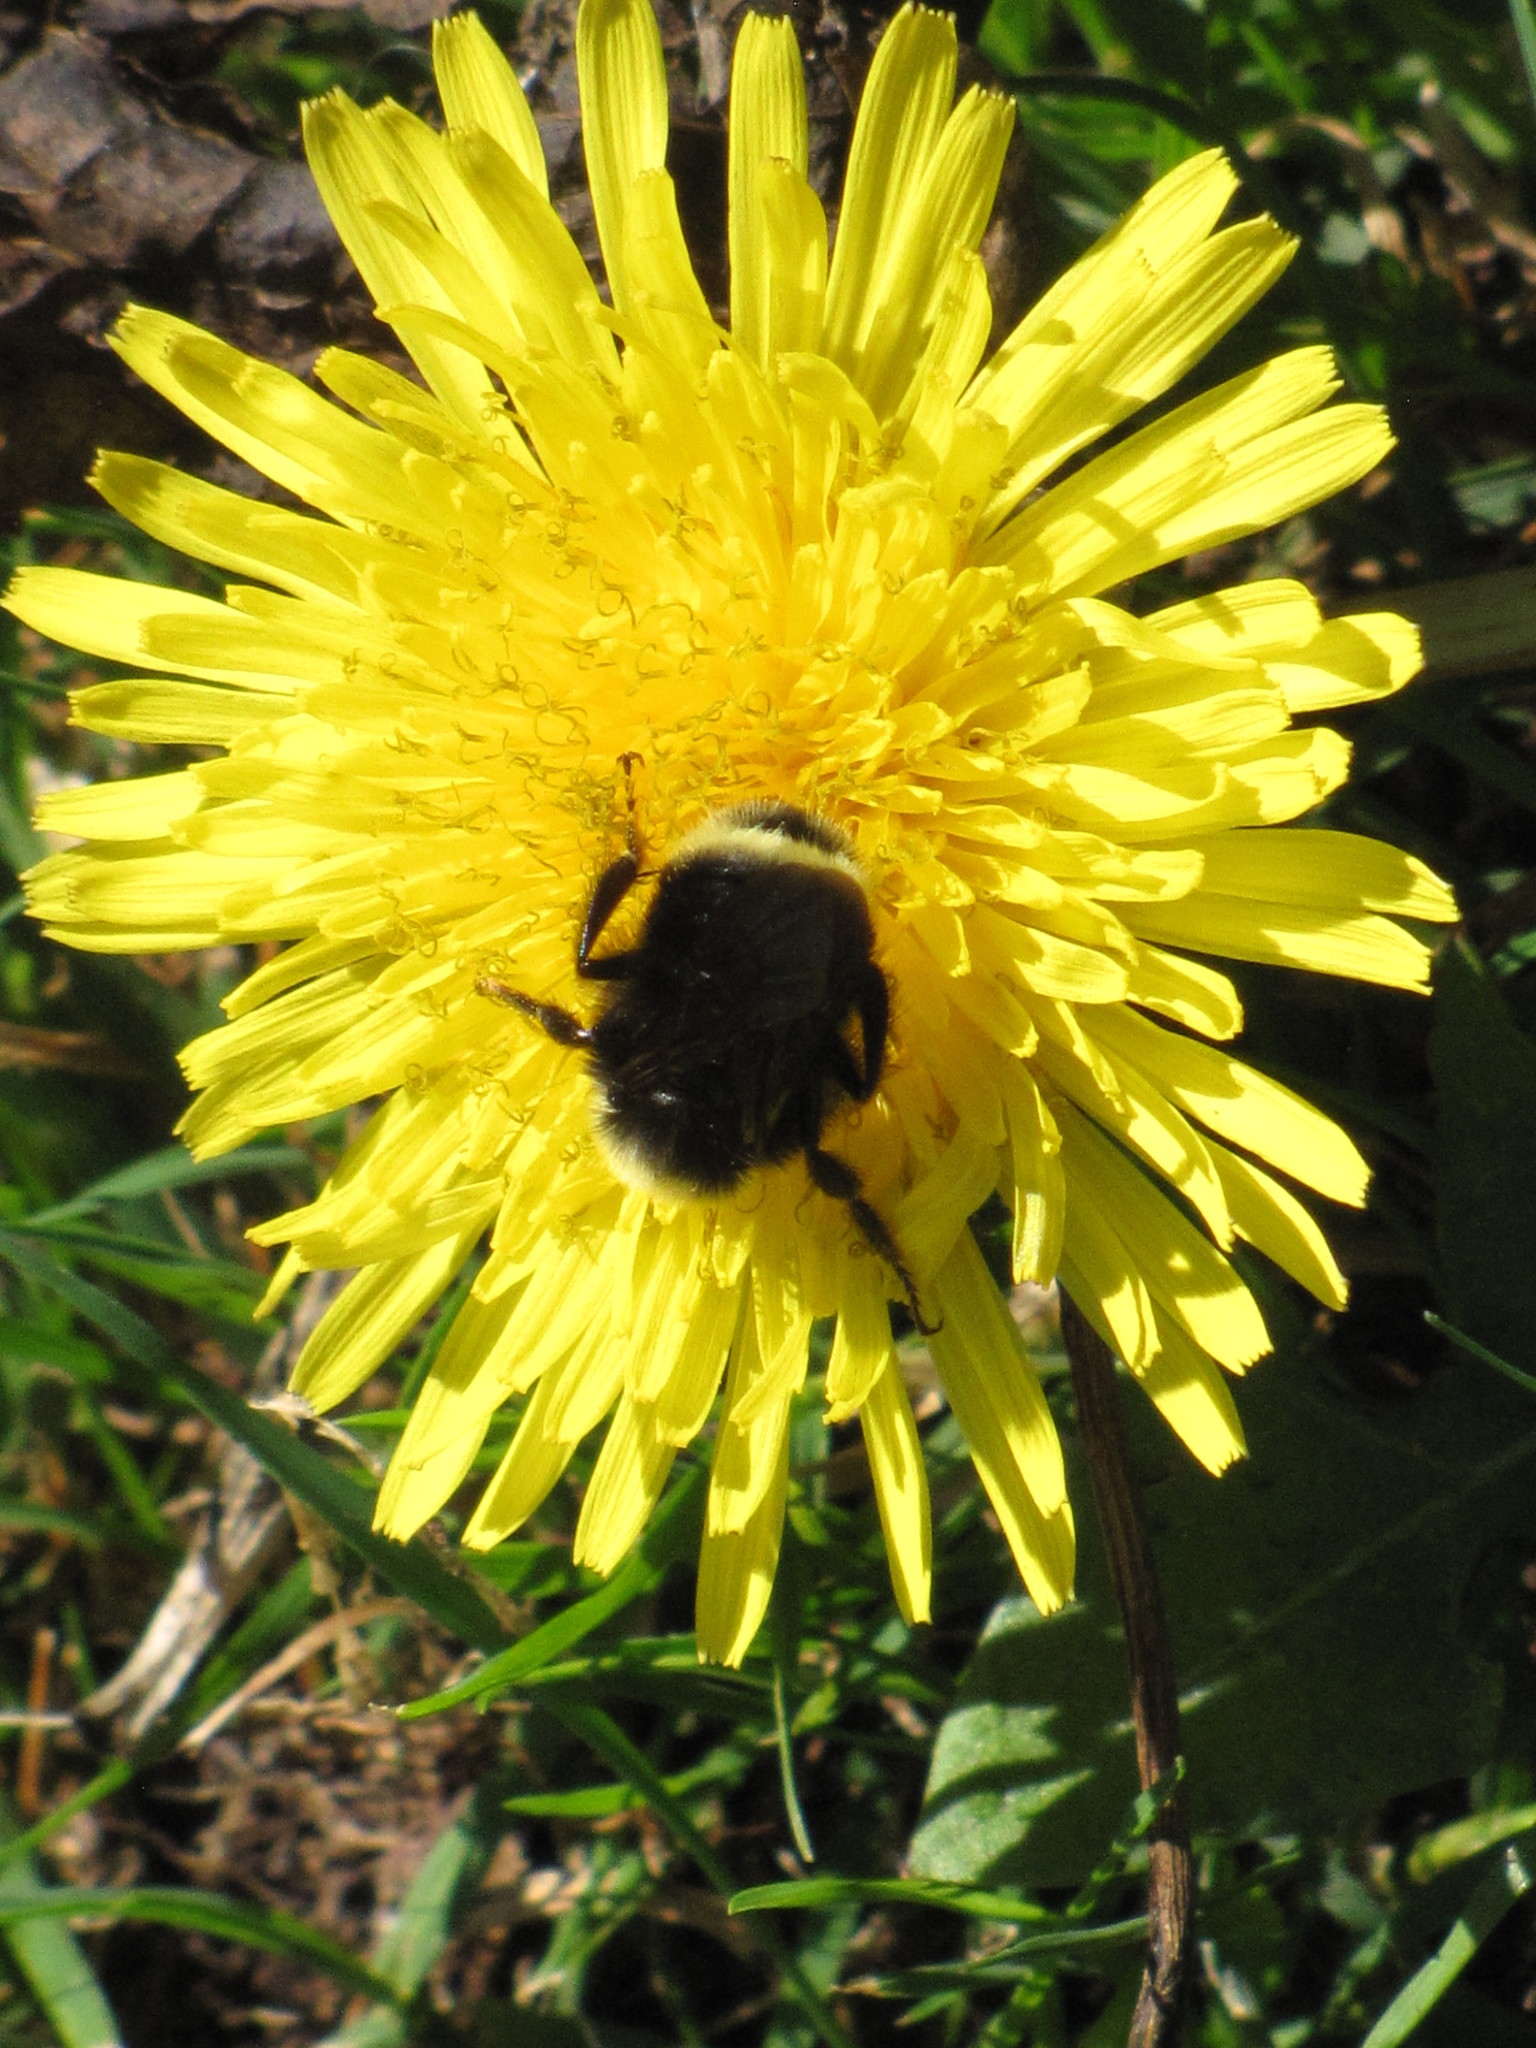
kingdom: Animalia
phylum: Arthropoda
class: Insecta
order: Hymenoptera
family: Apidae
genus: Bombus
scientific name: Bombus vosnesenskii
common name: Vosnesensky bumble bee
